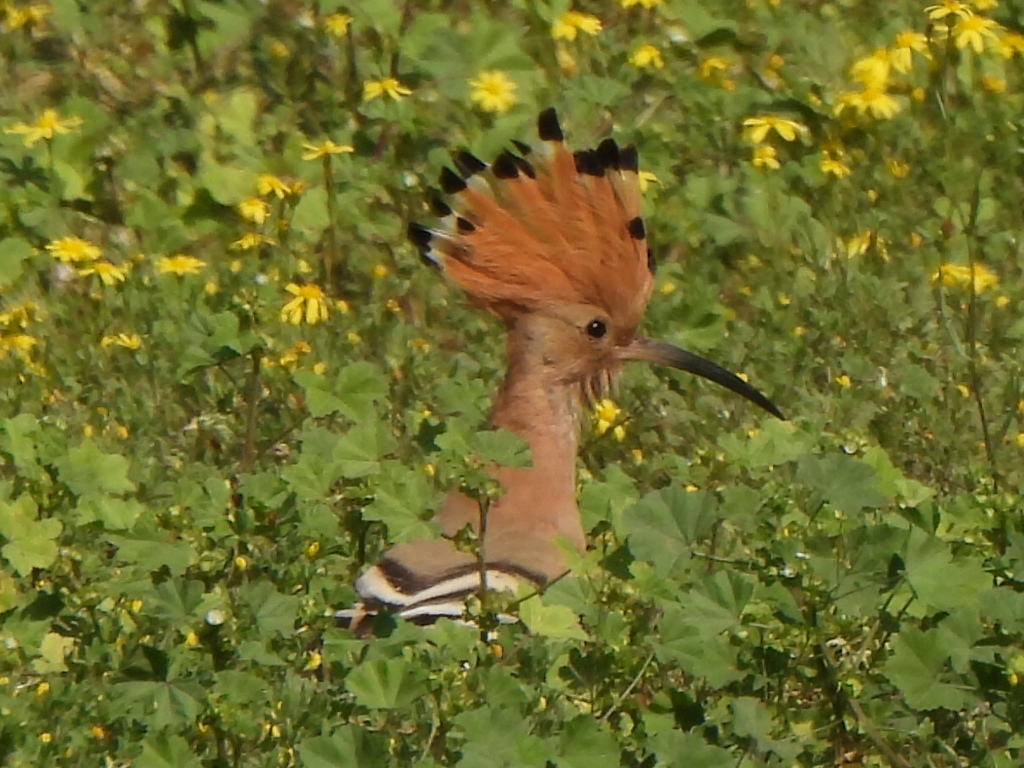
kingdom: Animalia
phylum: Chordata
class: Aves
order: Bucerotiformes
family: Upupidae
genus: Upupa
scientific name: Upupa epops
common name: Eurasian hoopoe
